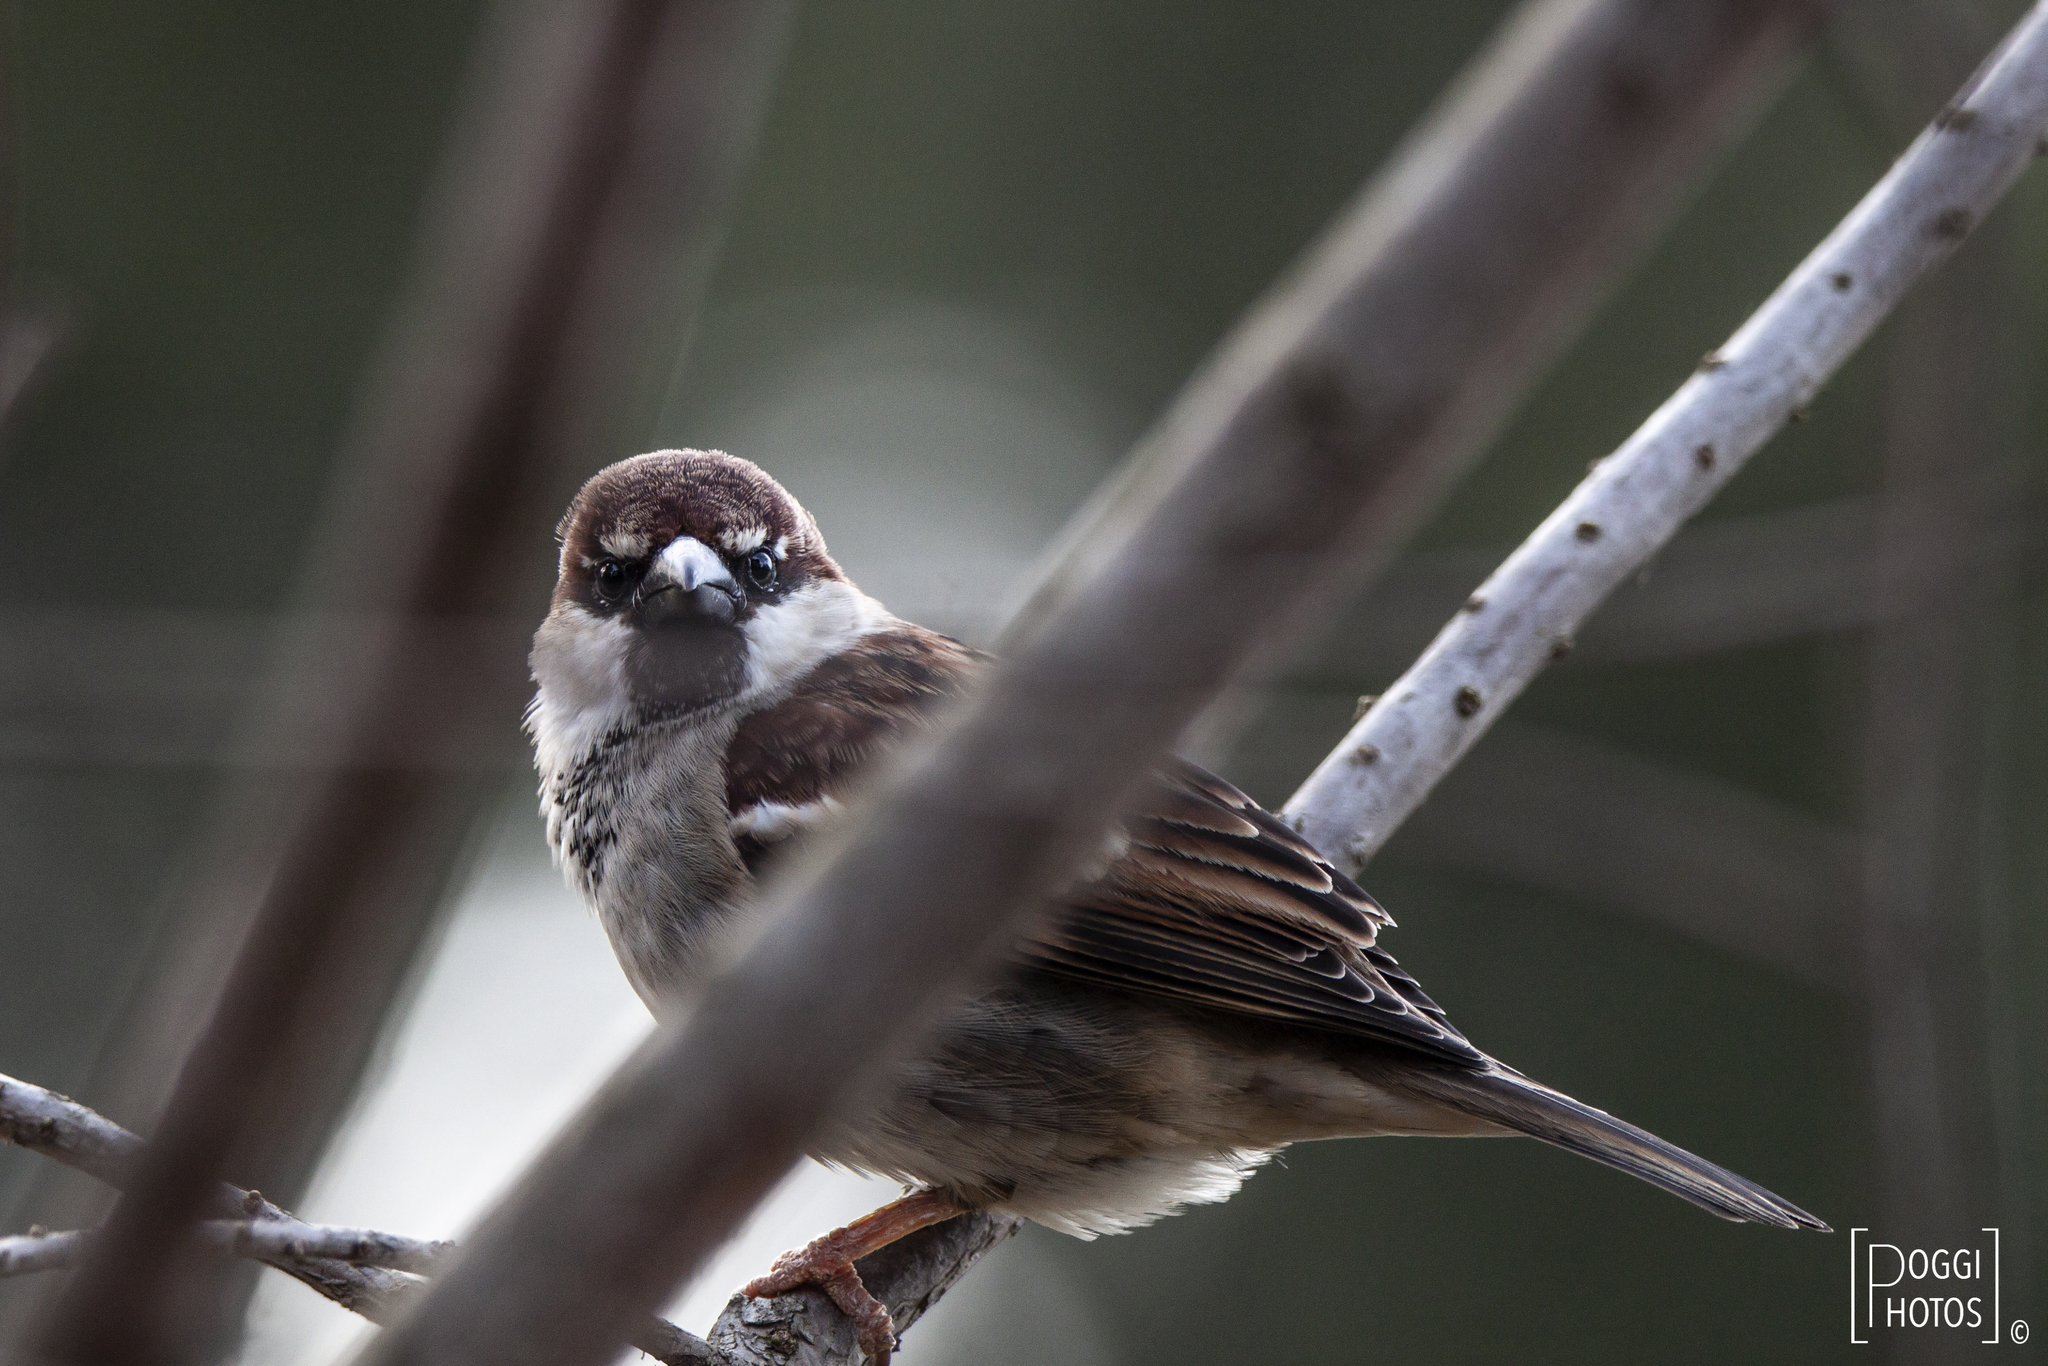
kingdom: Animalia
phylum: Chordata
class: Aves
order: Passeriformes
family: Passeridae
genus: Passer
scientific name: Passer italiae
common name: Italian sparrow
